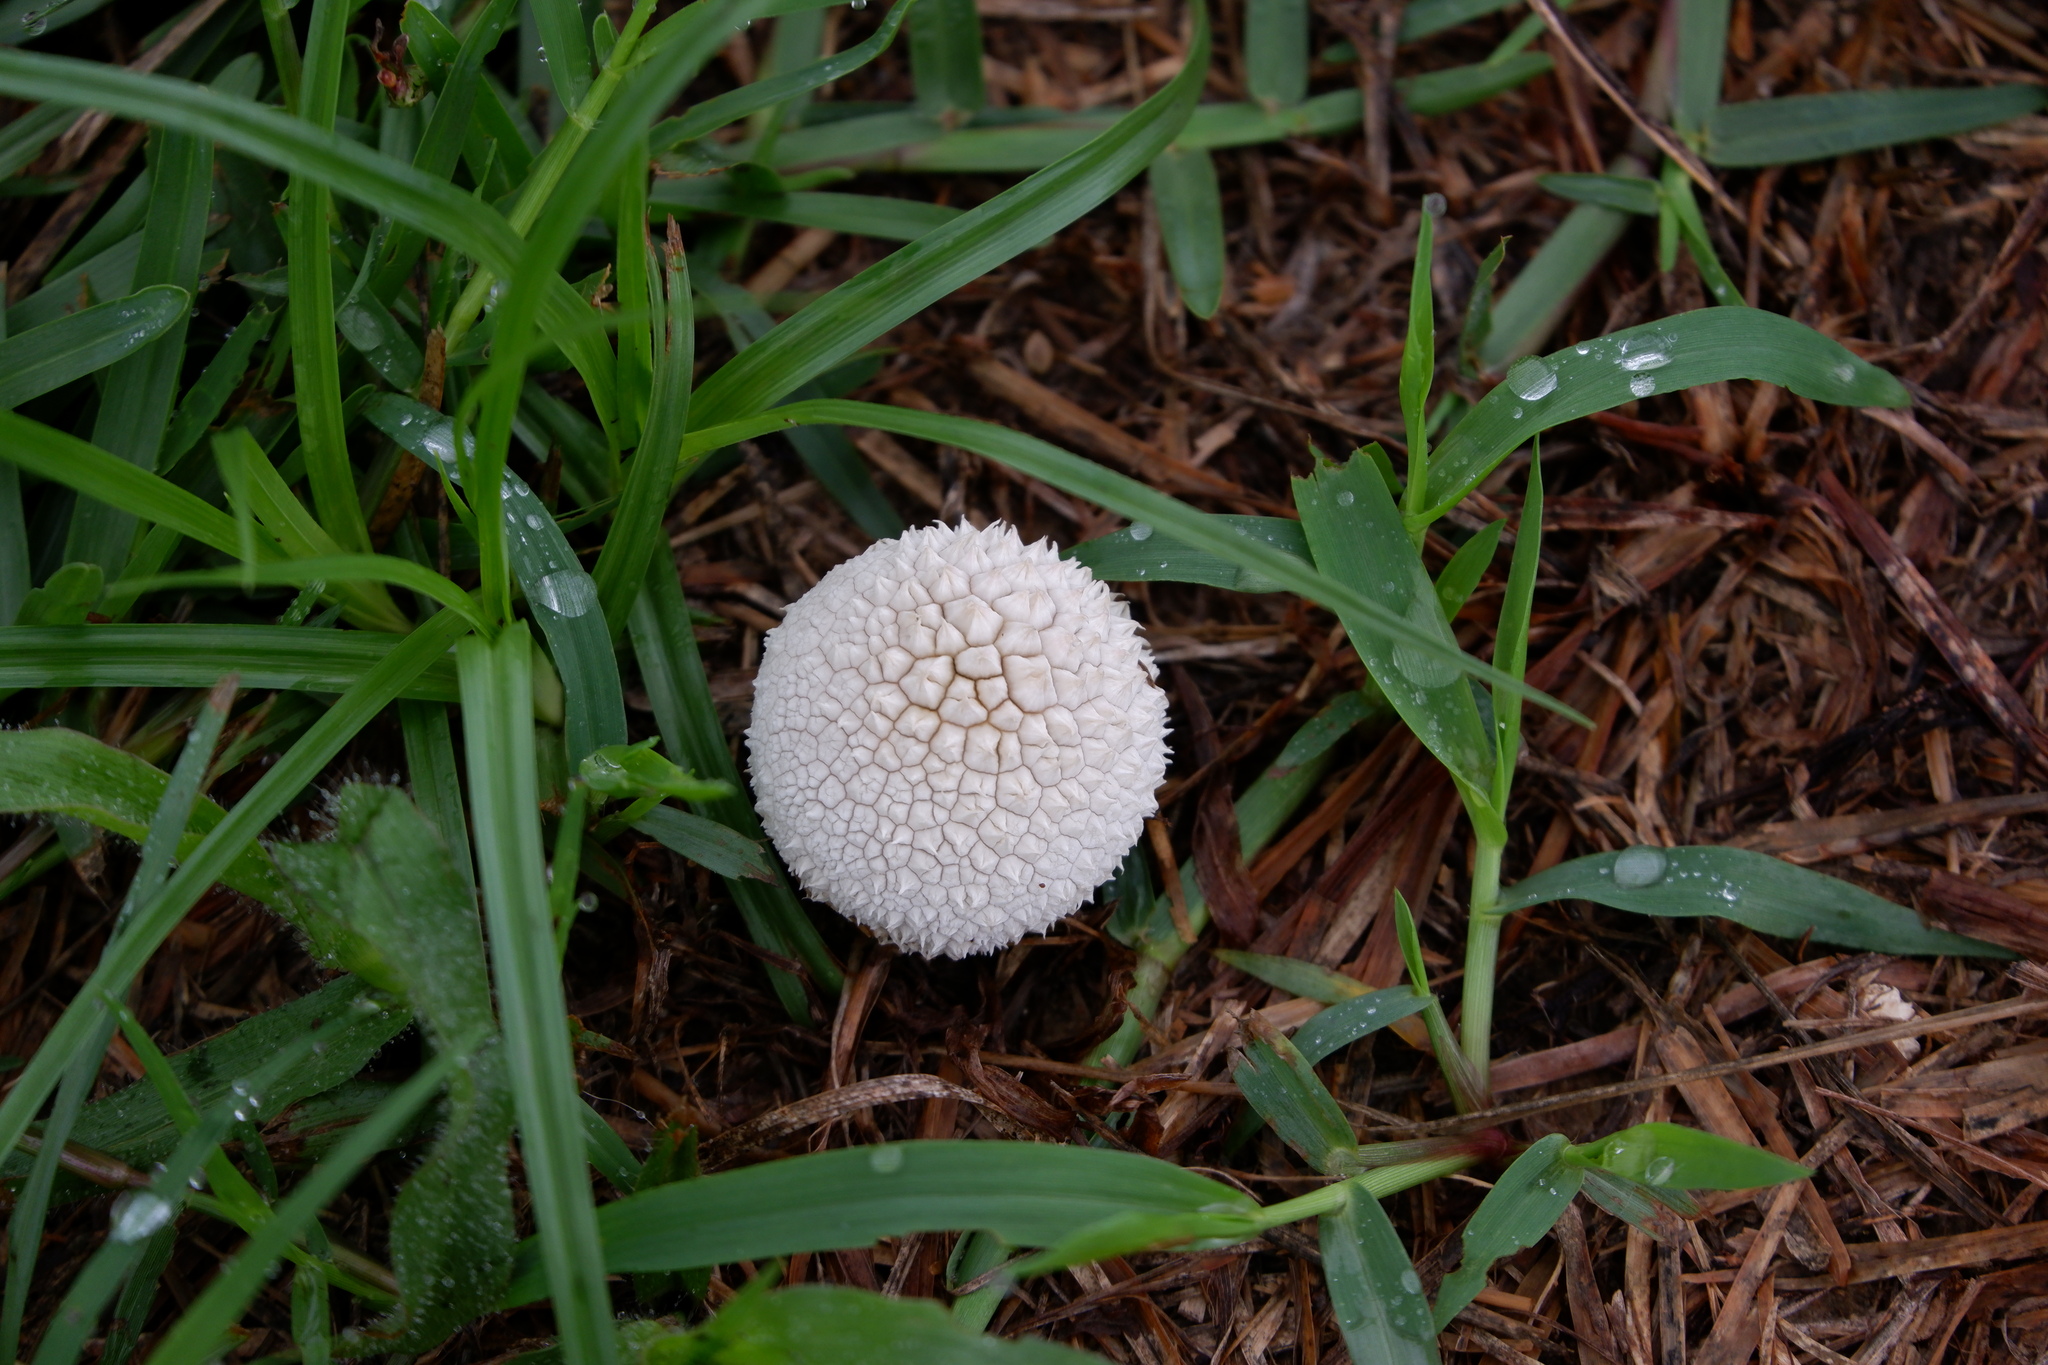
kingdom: Fungi
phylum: Basidiomycota
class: Agaricomycetes
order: Agaricales
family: Agaricaceae
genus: Lycoperdon
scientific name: Lycoperdon marginatum
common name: Peeling puffball
